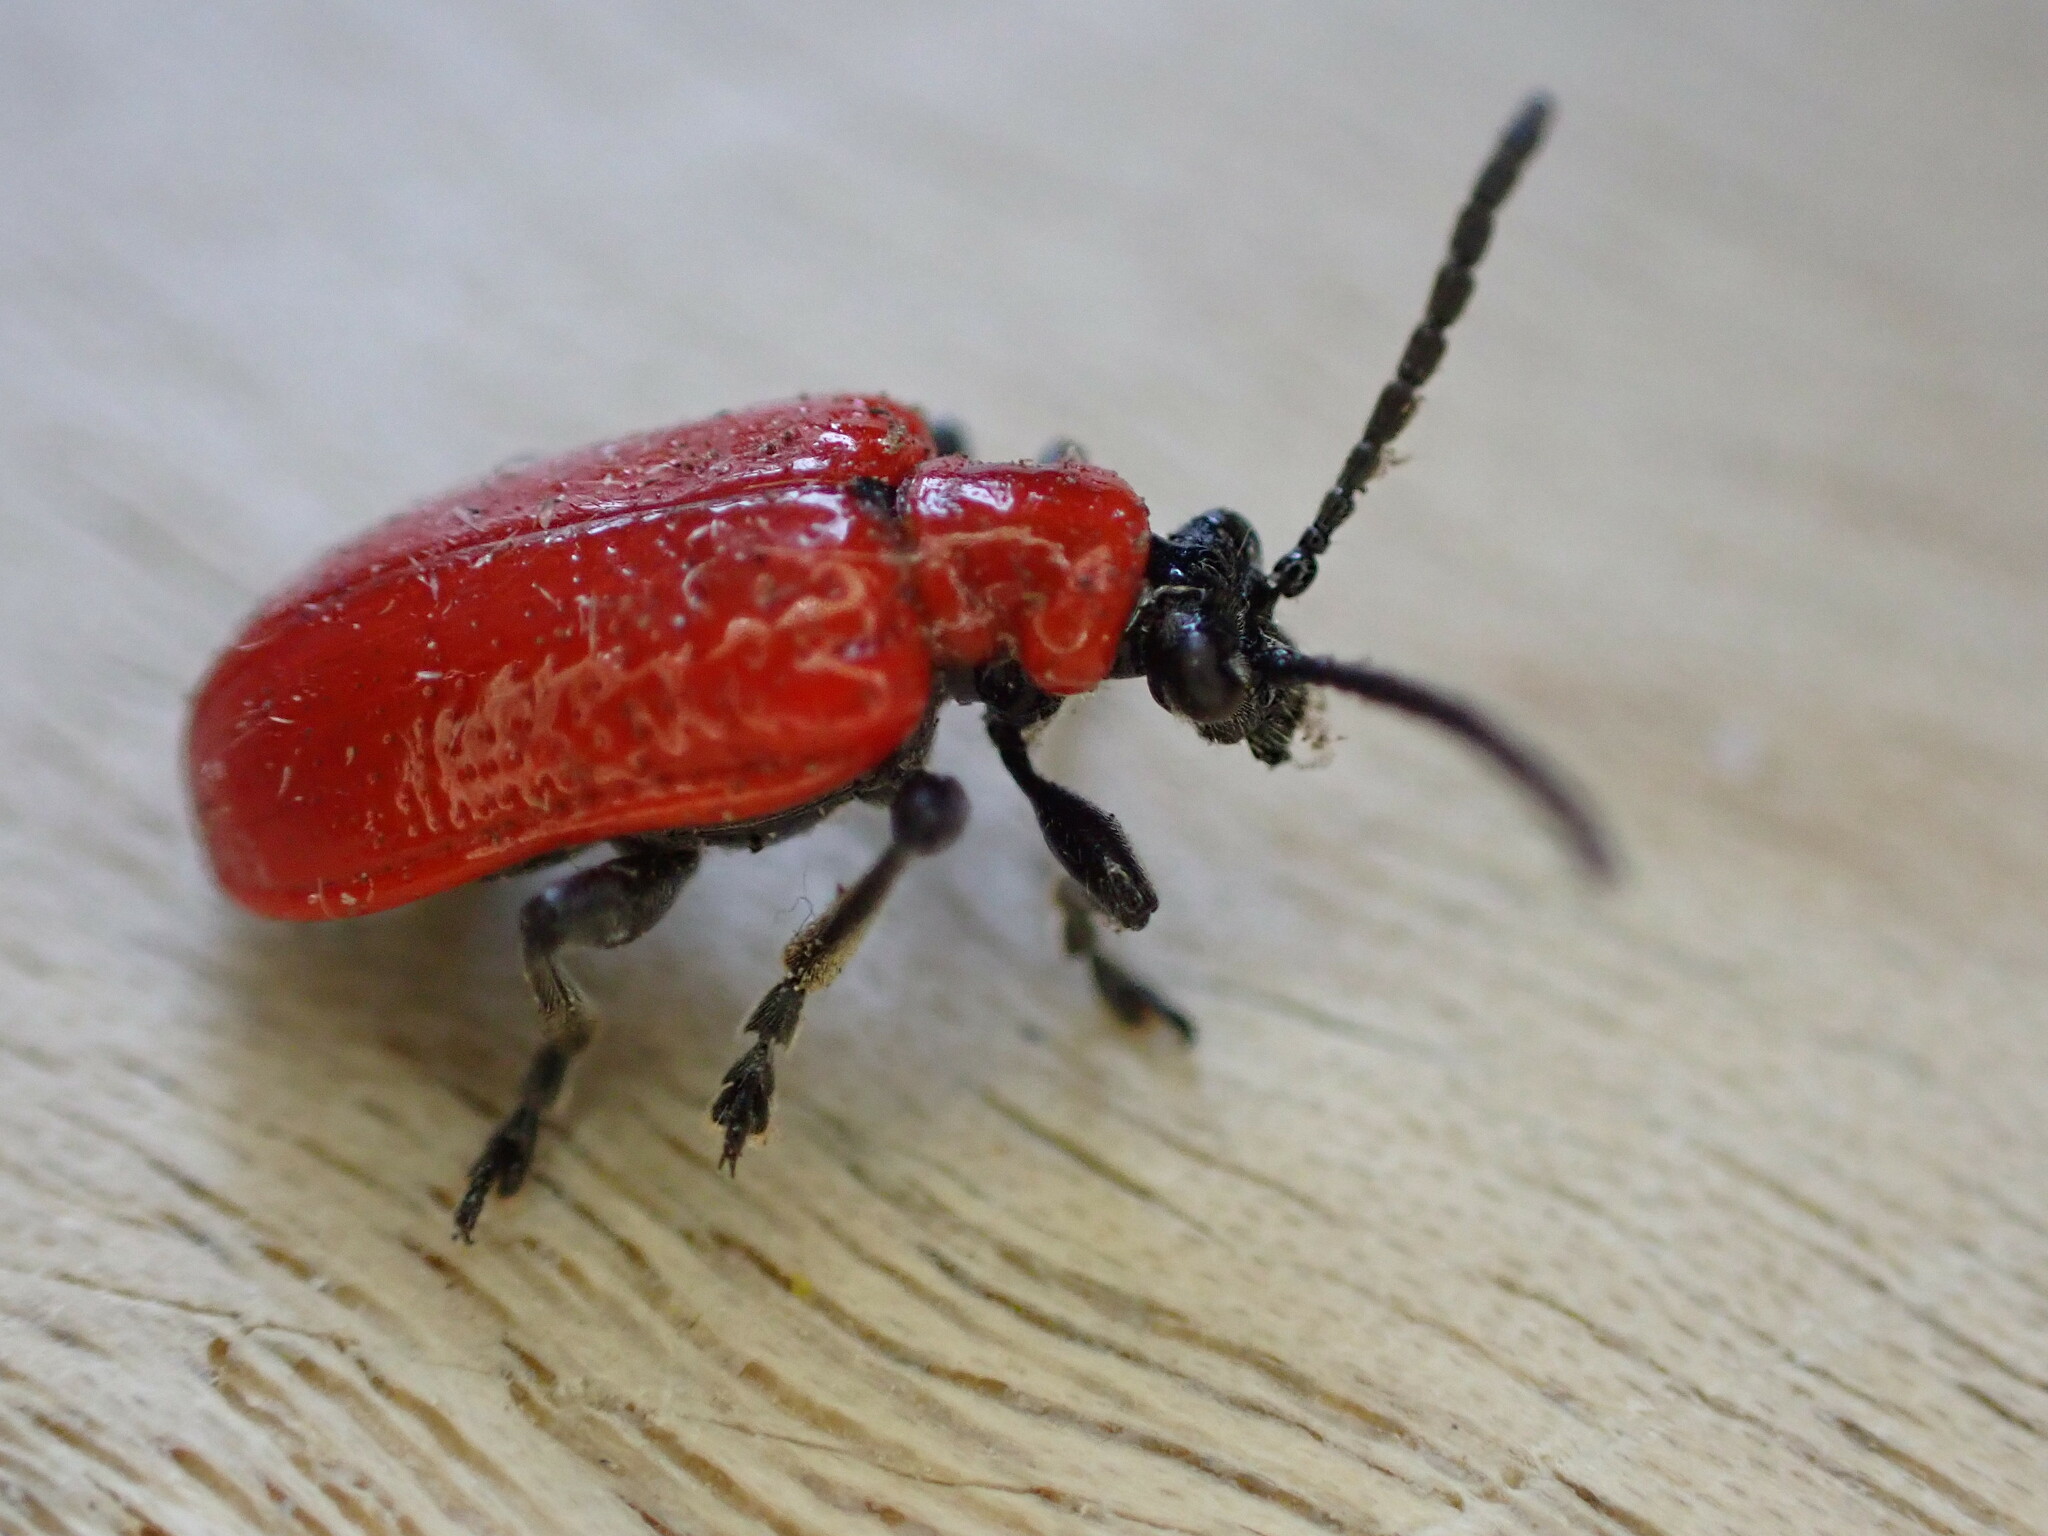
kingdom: Animalia
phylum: Arthropoda
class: Insecta
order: Coleoptera
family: Chrysomelidae
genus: Lilioceris
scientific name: Lilioceris lilii
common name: Lily beetle
